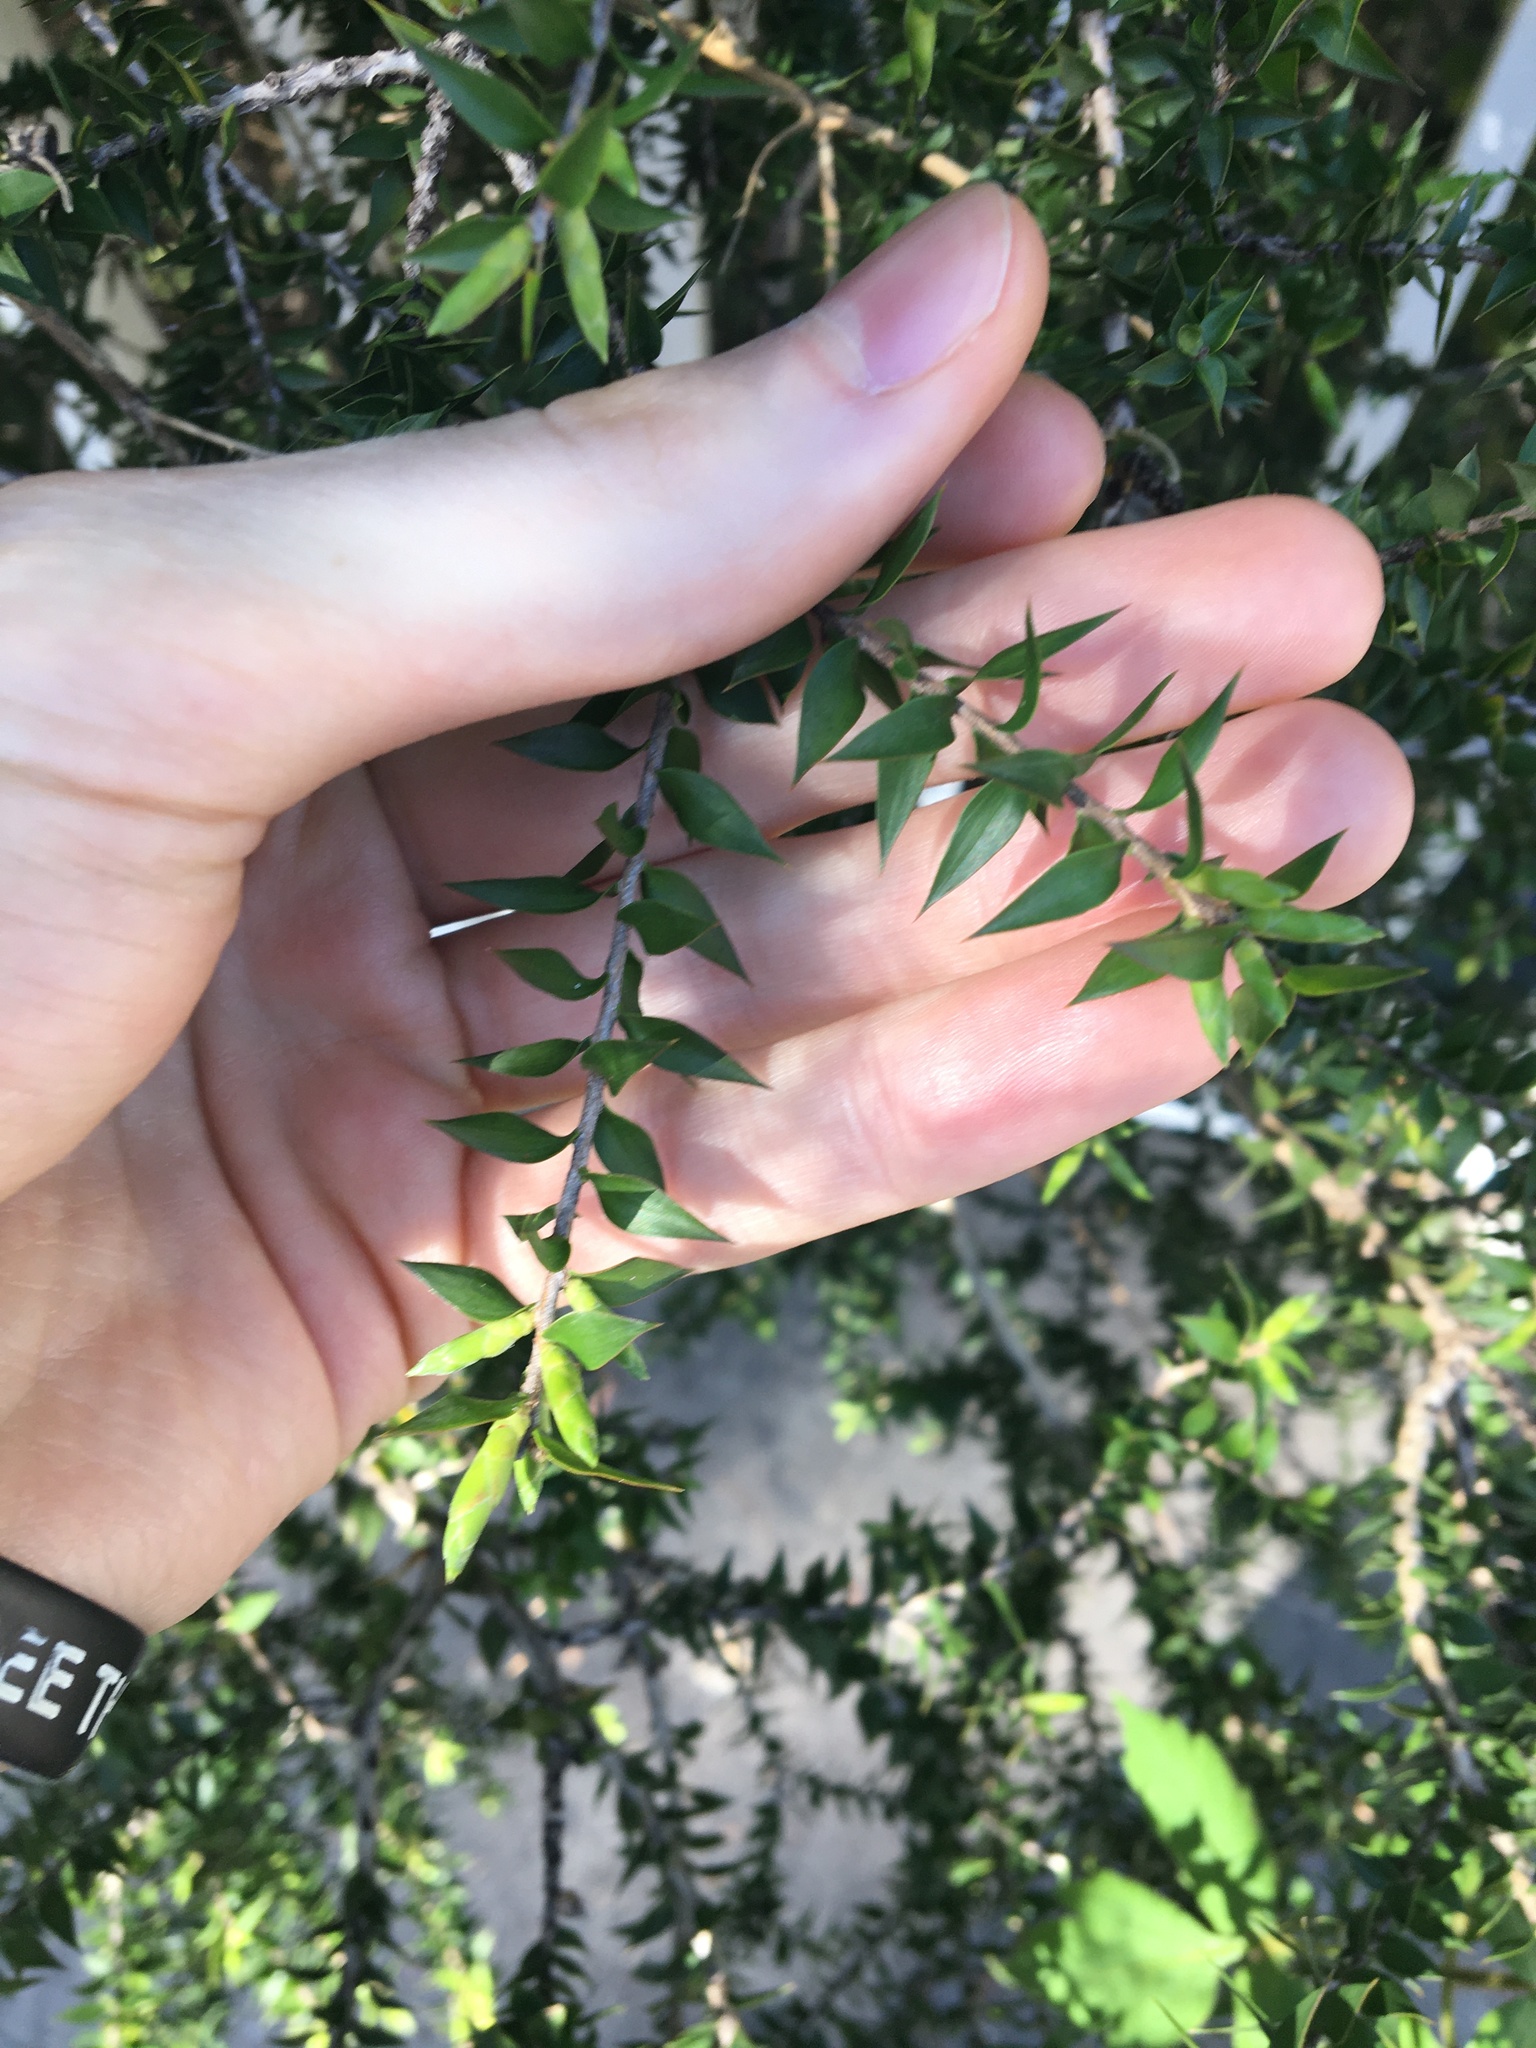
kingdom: Plantae
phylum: Tracheophyta
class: Magnoliopsida
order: Myrtales
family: Myrtaceae
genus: Melaleuca
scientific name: Melaleuca styphelioides
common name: Prickly paperbark
